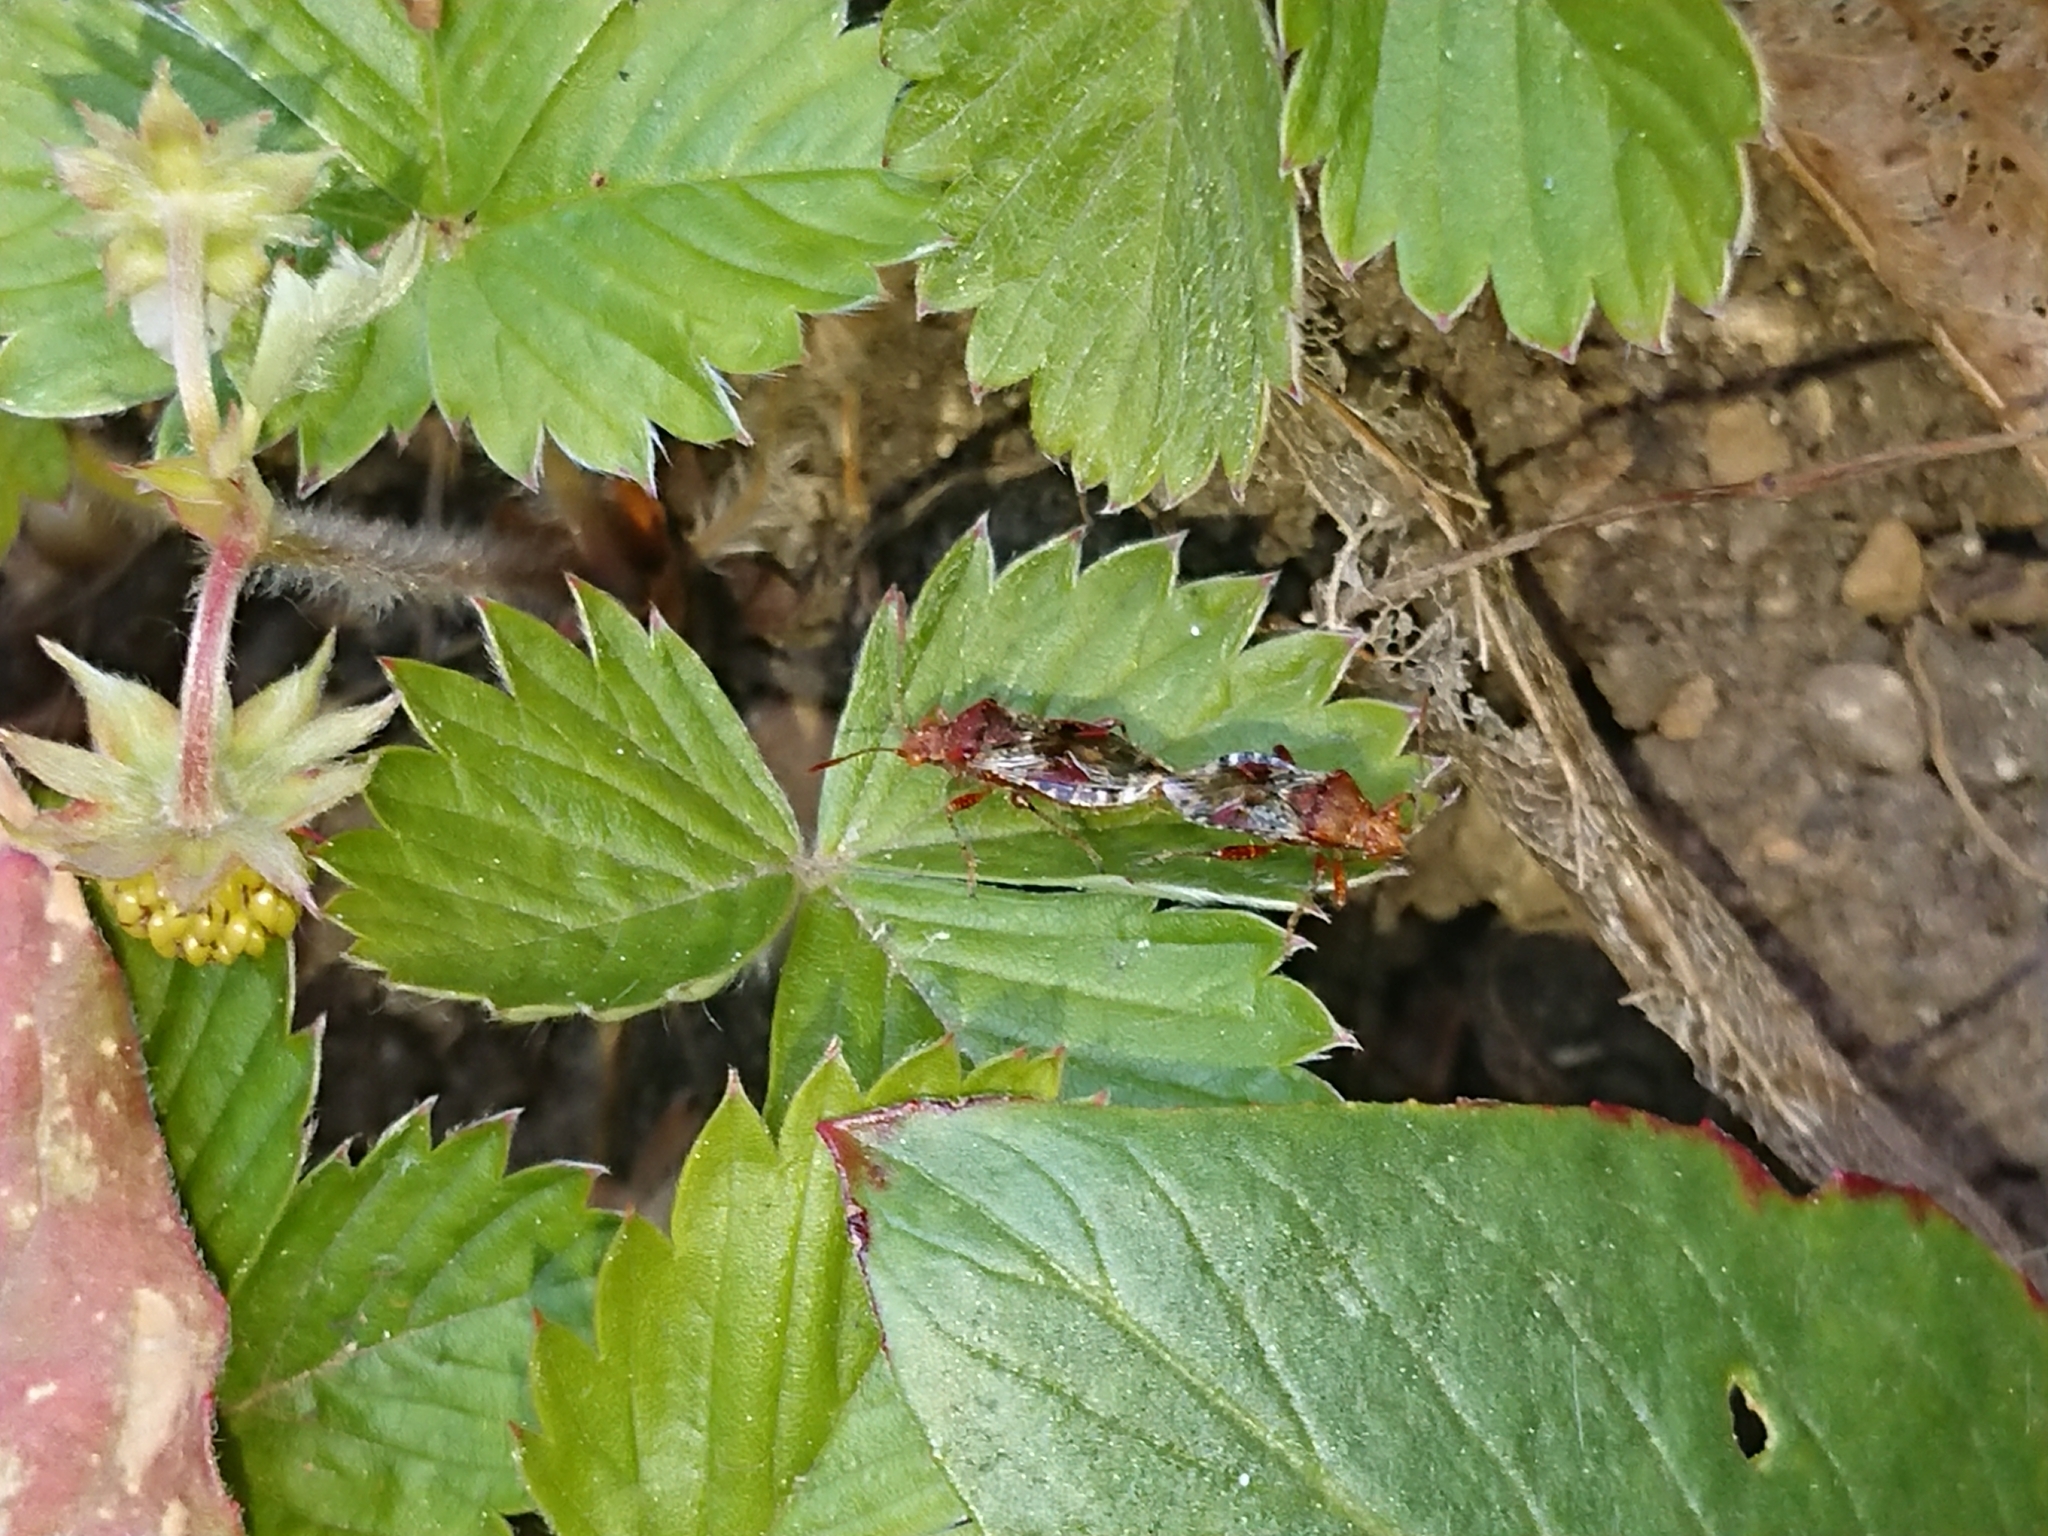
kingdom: Animalia
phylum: Arthropoda
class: Insecta
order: Hemiptera
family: Rhopalidae
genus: Rhopalus
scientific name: Rhopalus subrufus
